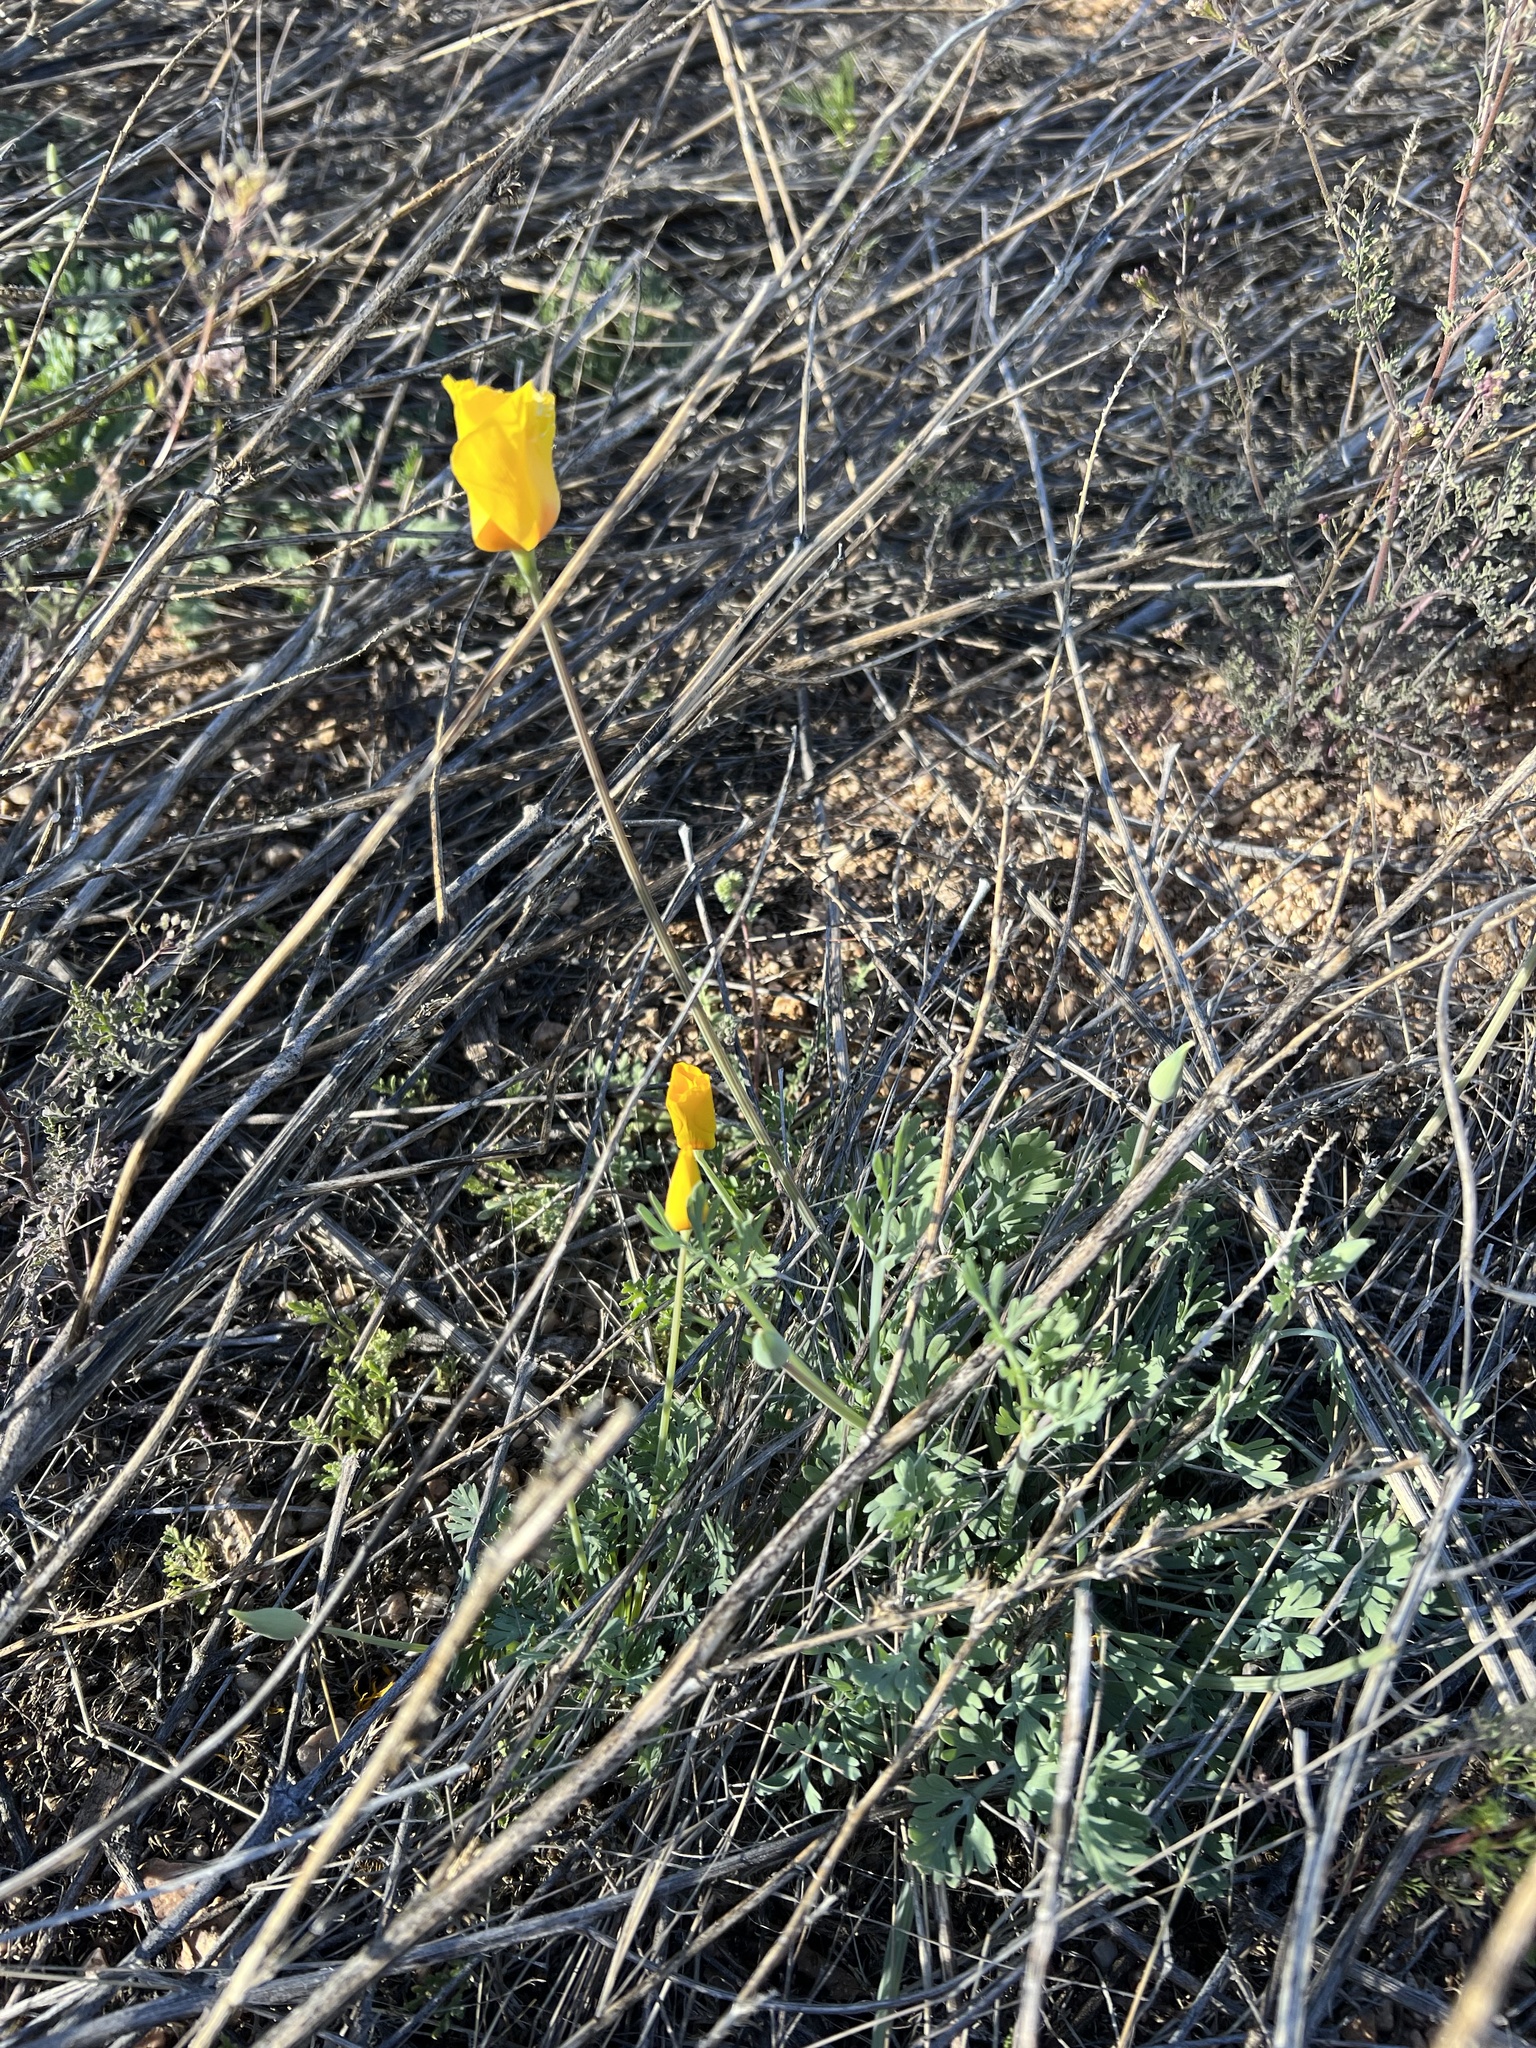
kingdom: Plantae
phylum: Tracheophyta
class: Magnoliopsida
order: Ranunculales
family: Papaveraceae
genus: Eschscholzia
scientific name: Eschscholzia californica
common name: California poppy
